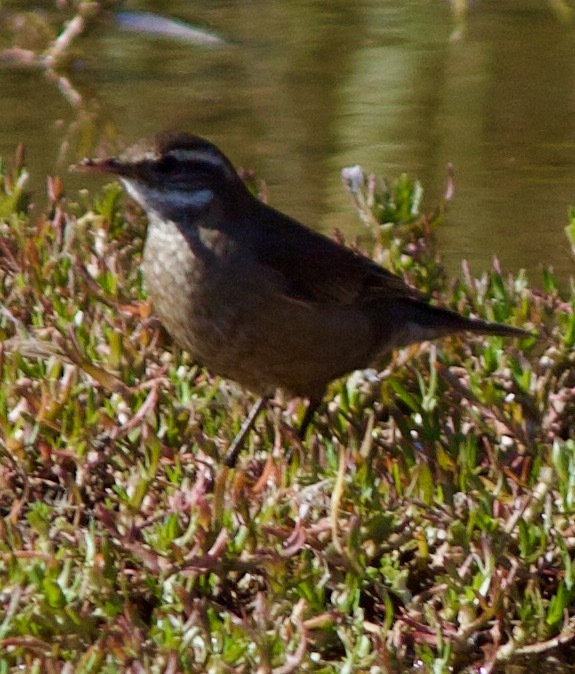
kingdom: Animalia
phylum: Chordata
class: Aves
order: Passeriformes
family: Furnariidae
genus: Cinclodes
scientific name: Cinclodes fuscus
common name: Buff-winged cinclodes
